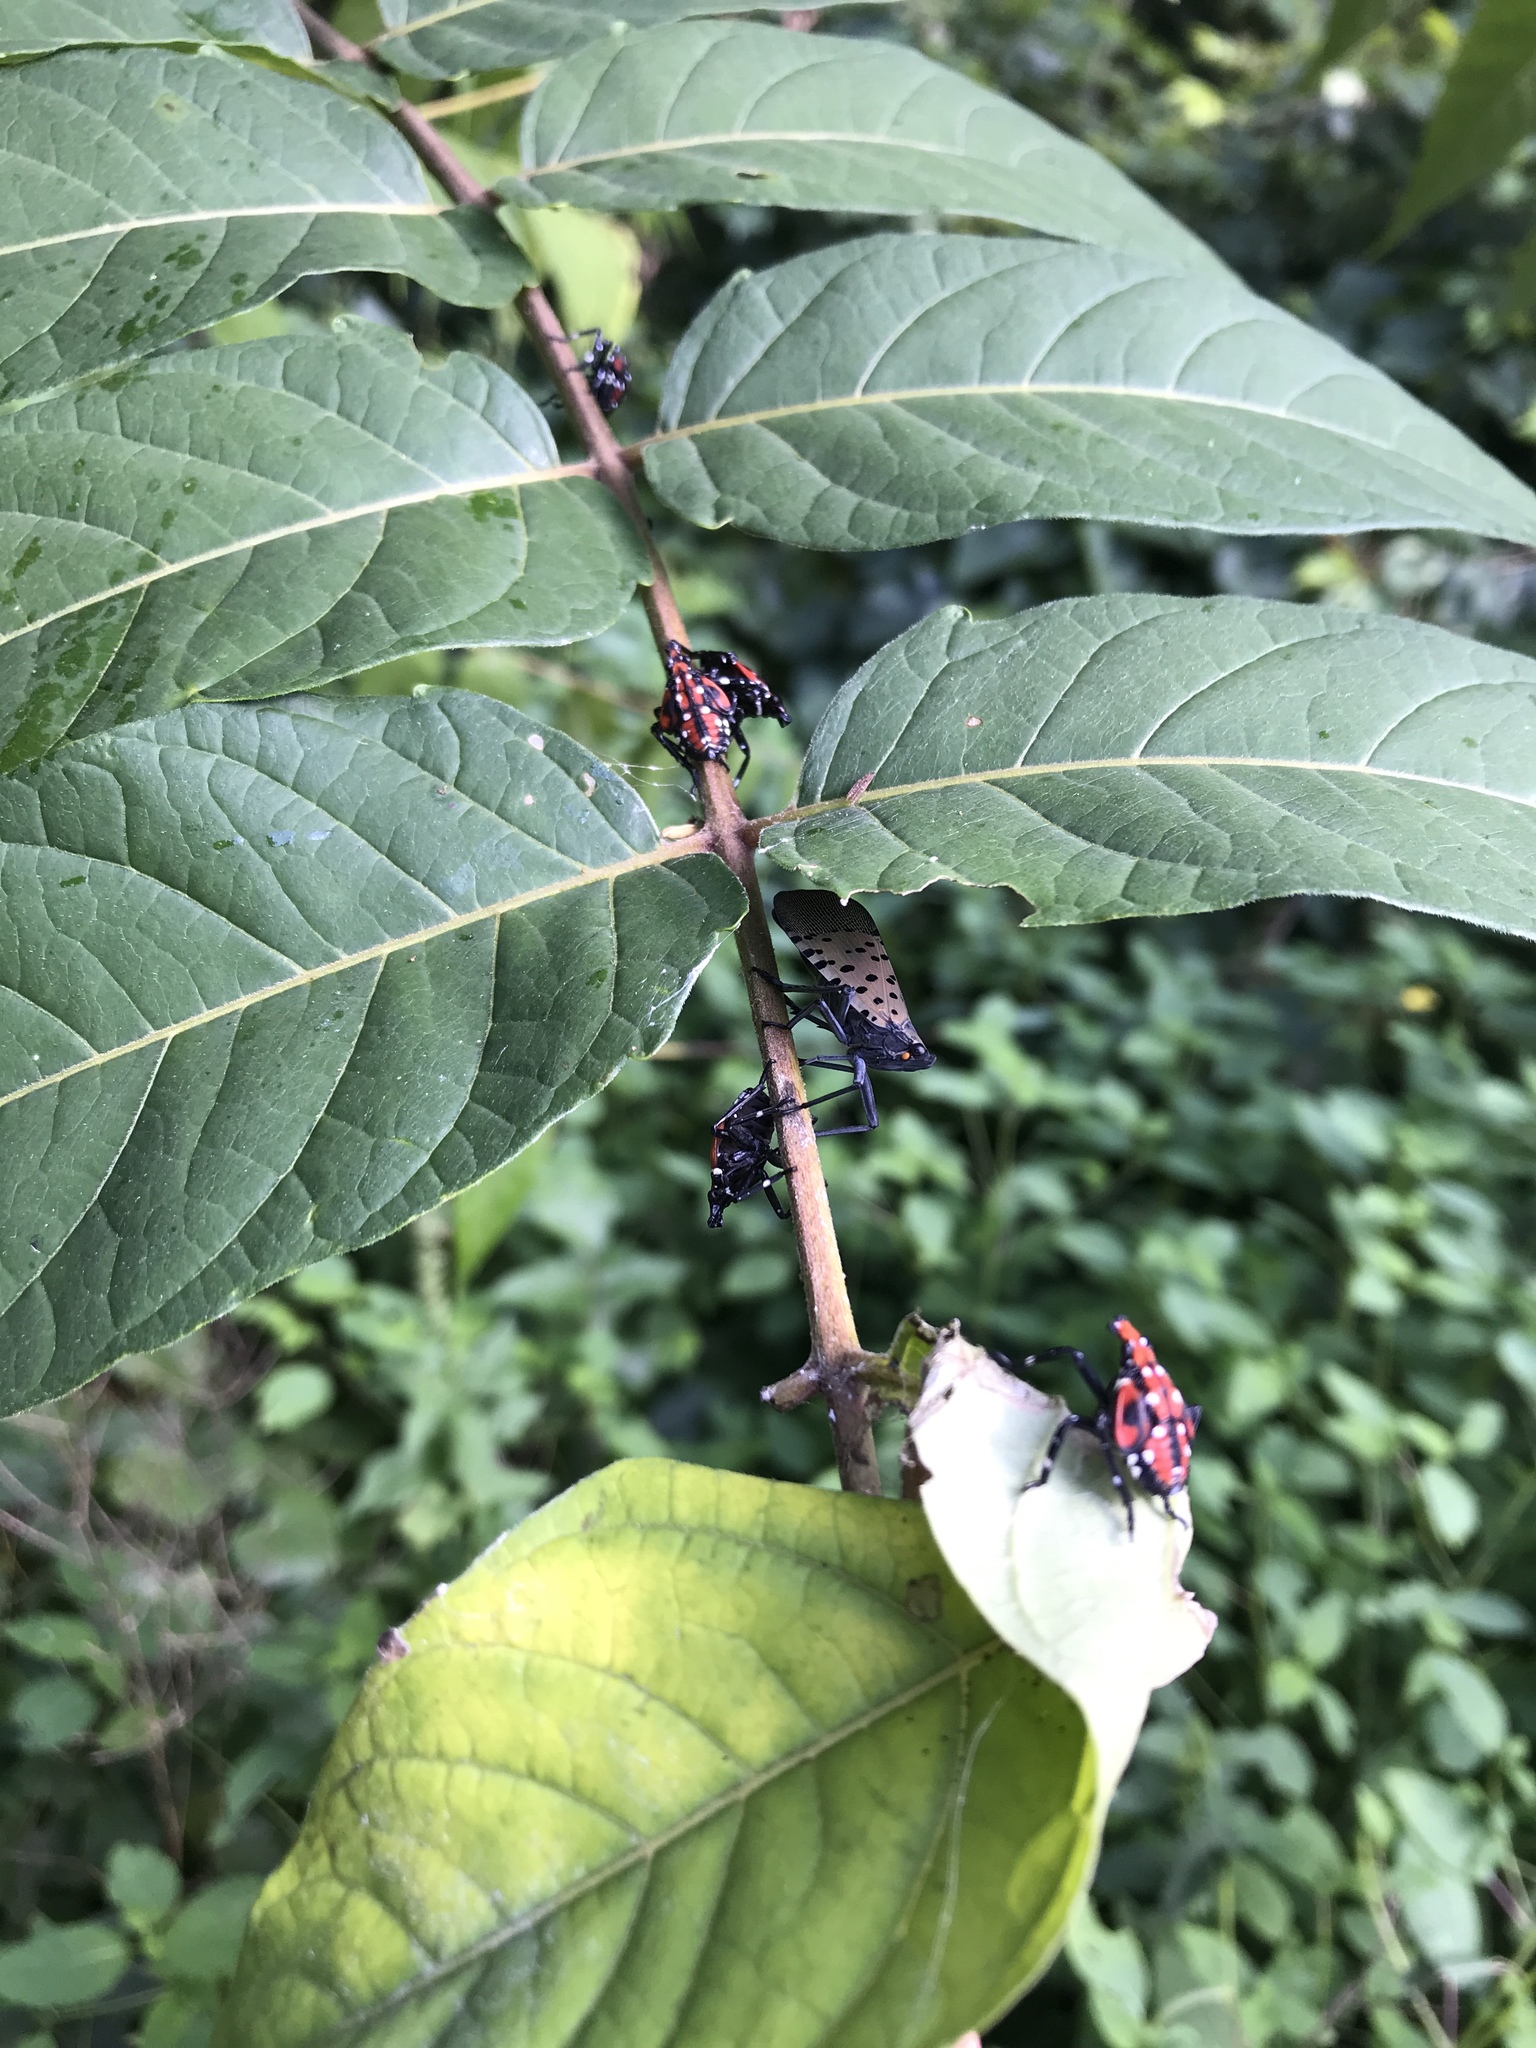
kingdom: Animalia
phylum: Arthropoda
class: Insecta
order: Hemiptera
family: Fulgoridae
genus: Lycorma
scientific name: Lycorma delicatula
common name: Spotted lanternfly
